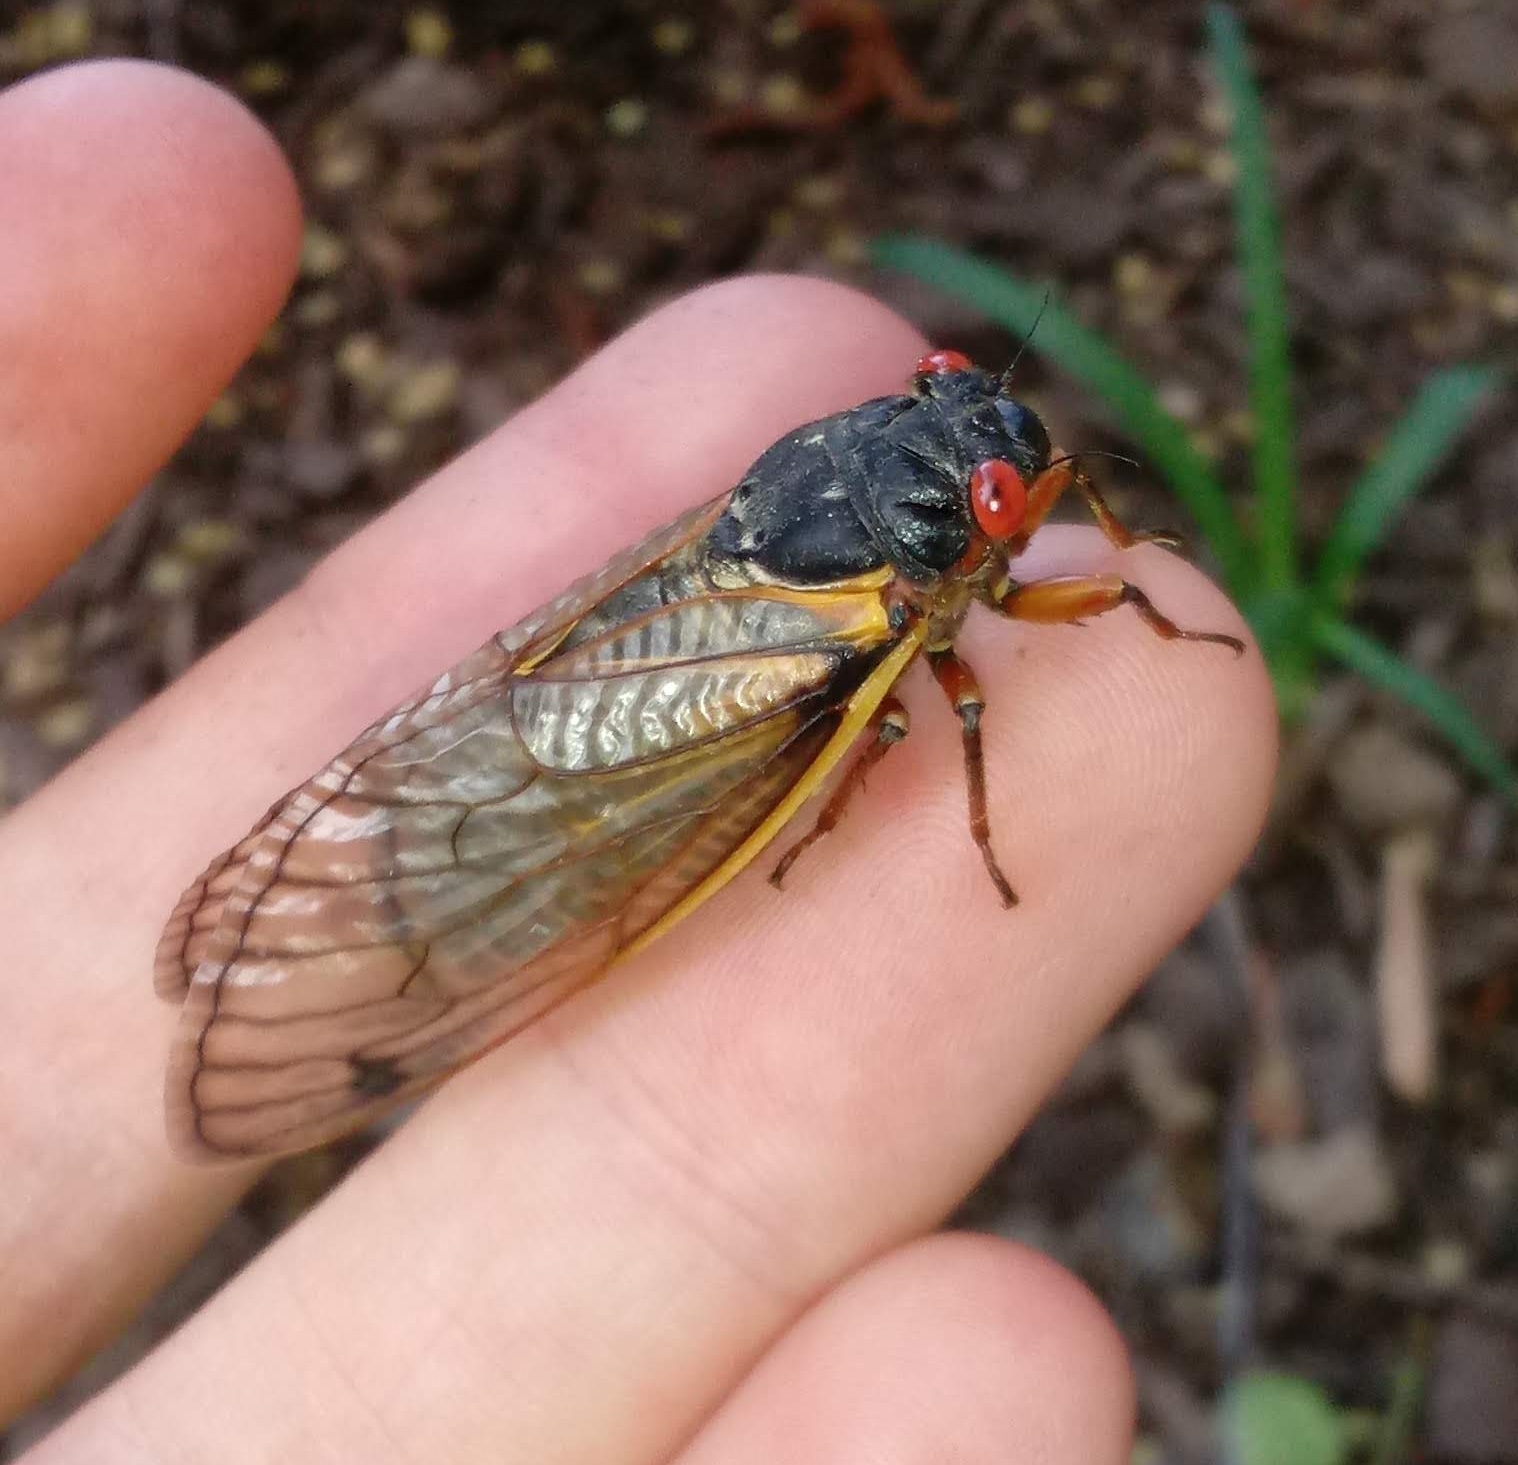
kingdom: Animalia
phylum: Arthropoda
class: Insecta
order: Hemiptera
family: Cicadidae
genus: Magicicada
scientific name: Magicicada septendecim
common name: Periodical cicada
